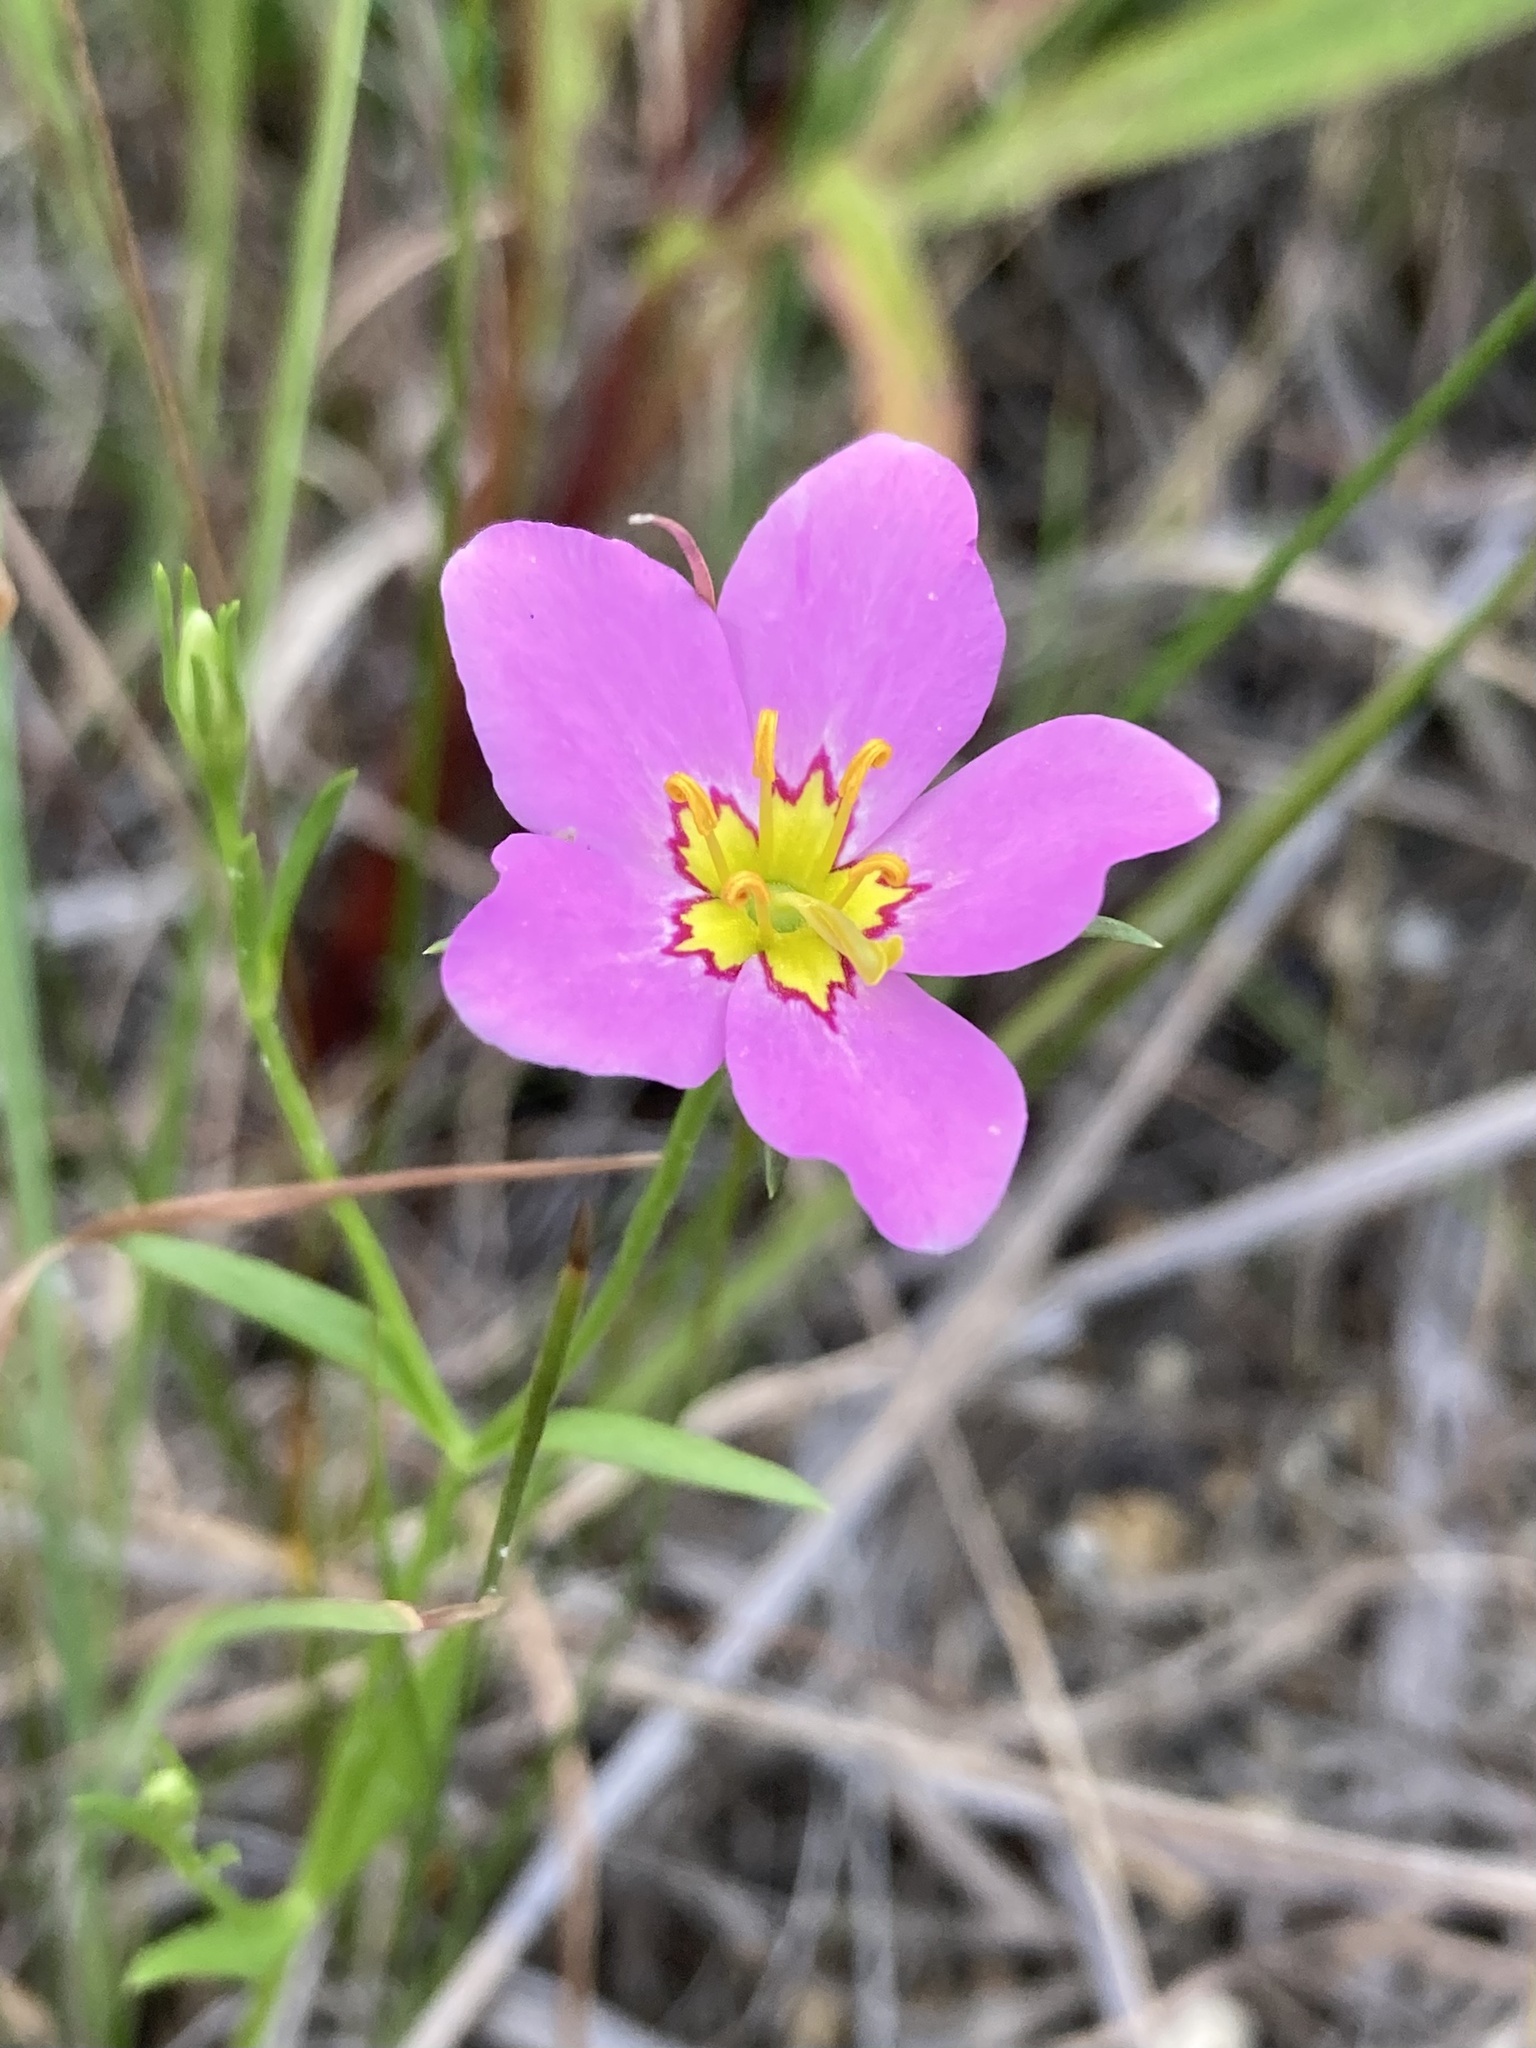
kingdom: Plantae
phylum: Tracheophyta
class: Magnoliopsida
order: Gentianales
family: Gentianaceae
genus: Sabatia
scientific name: Sabatia stellaris
